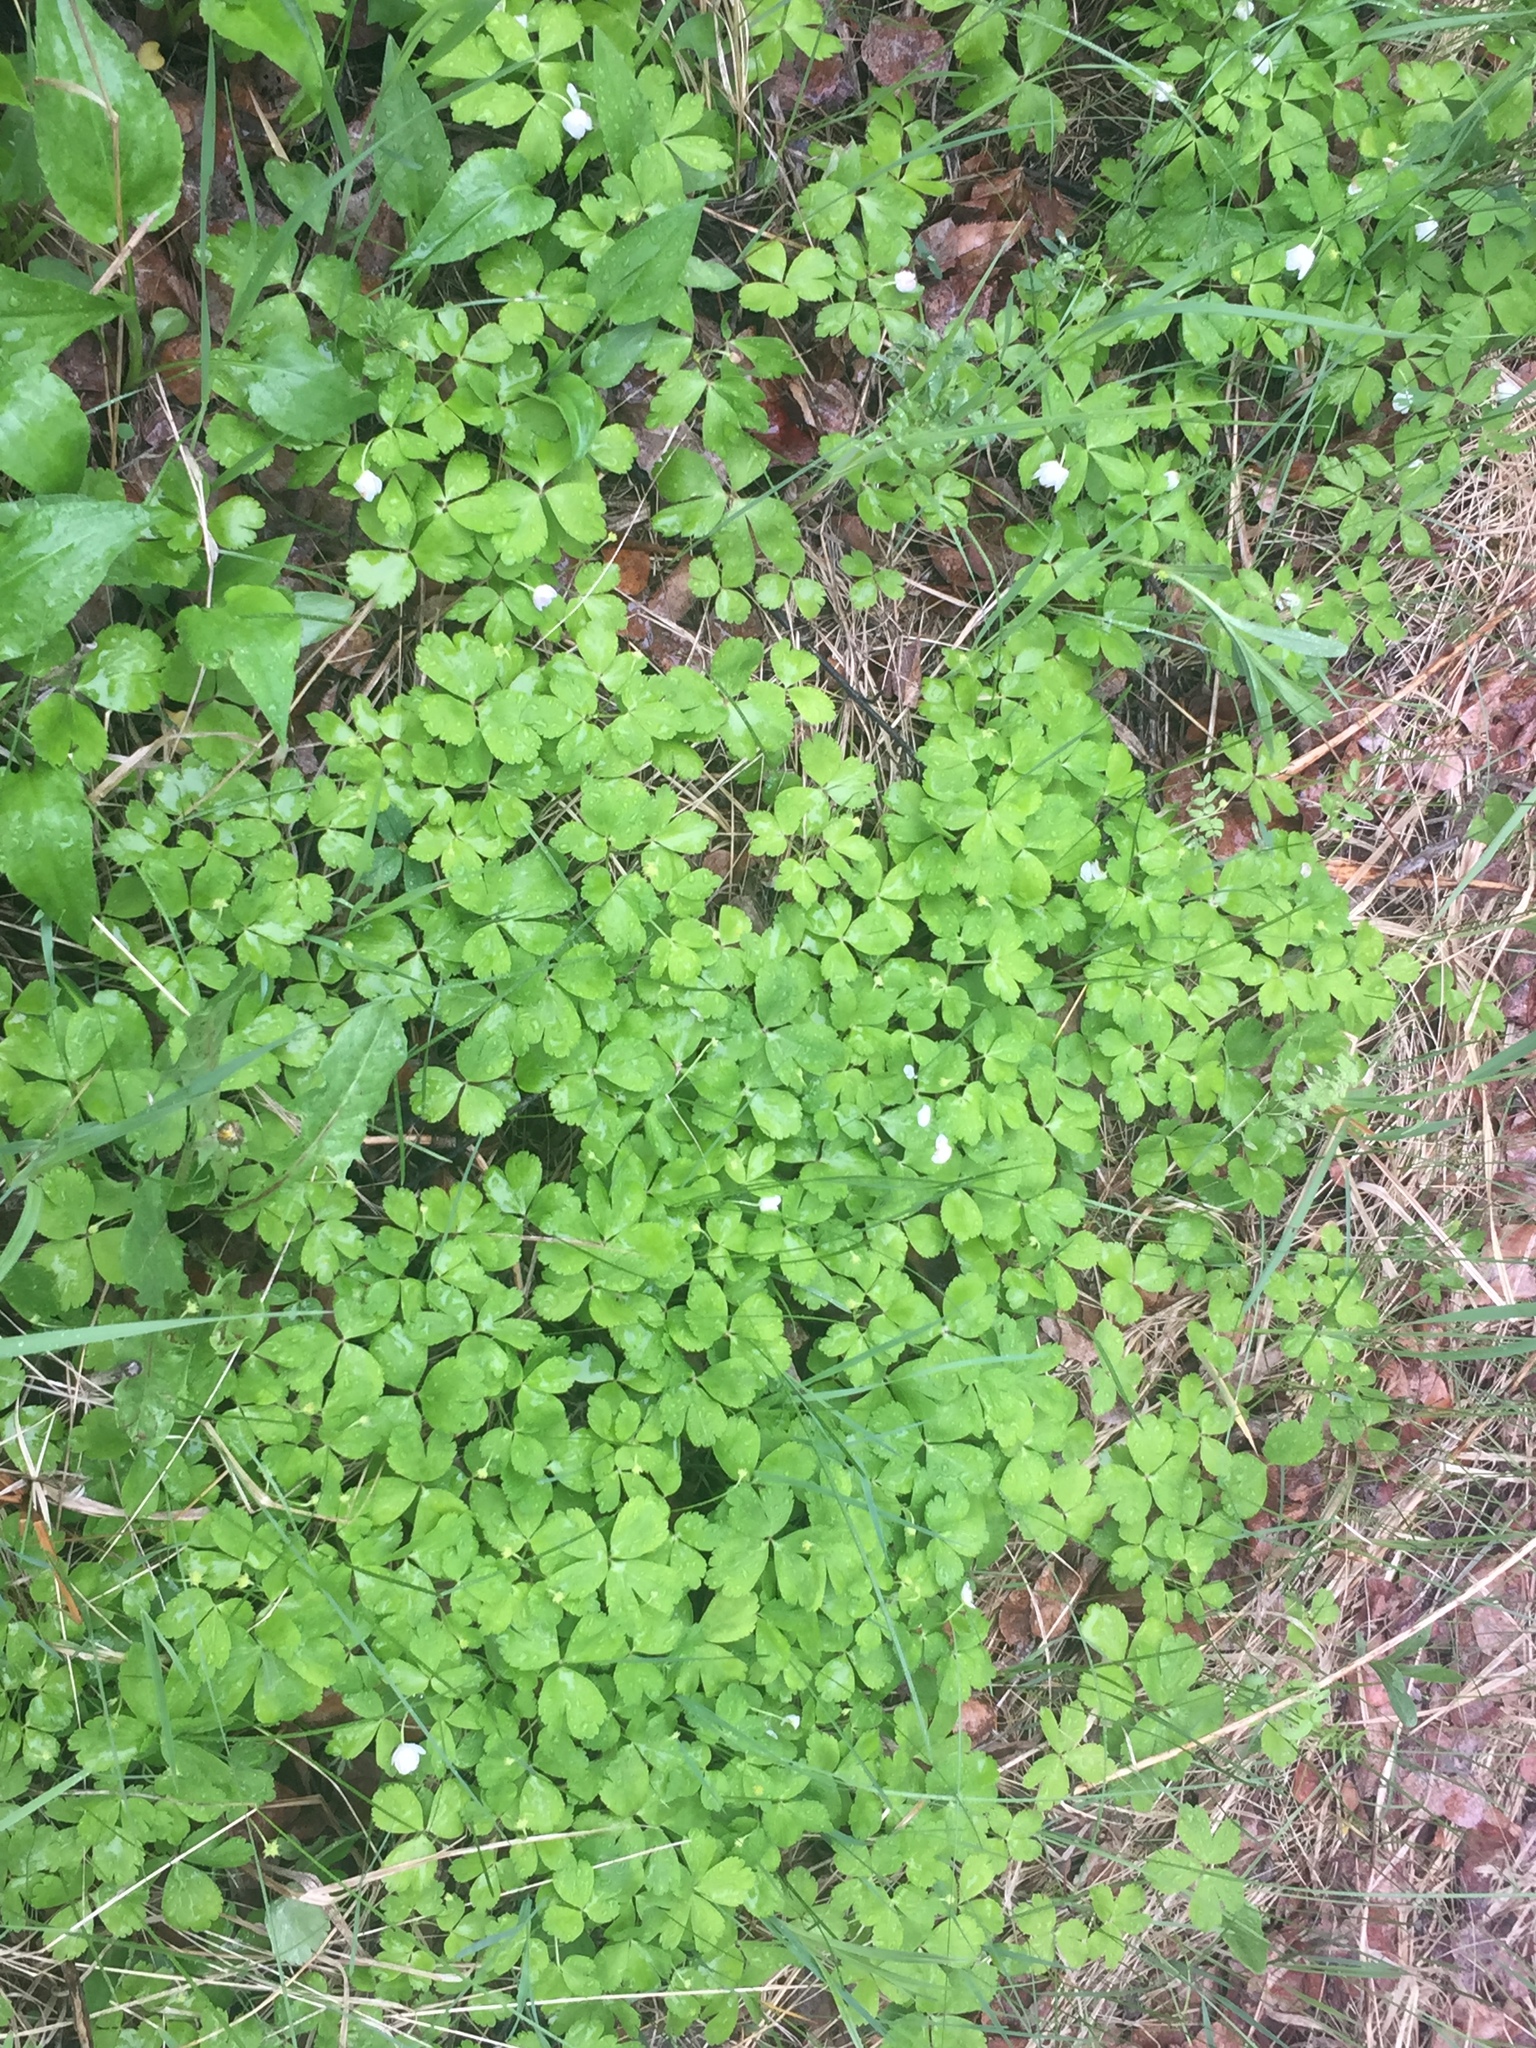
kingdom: Plantae
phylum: Tracheophyta
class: Magnoliopsida
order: Ranunculales
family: Ranunculaceae
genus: Anemone
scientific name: Anemone quinquefolia
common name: Wood anemone
